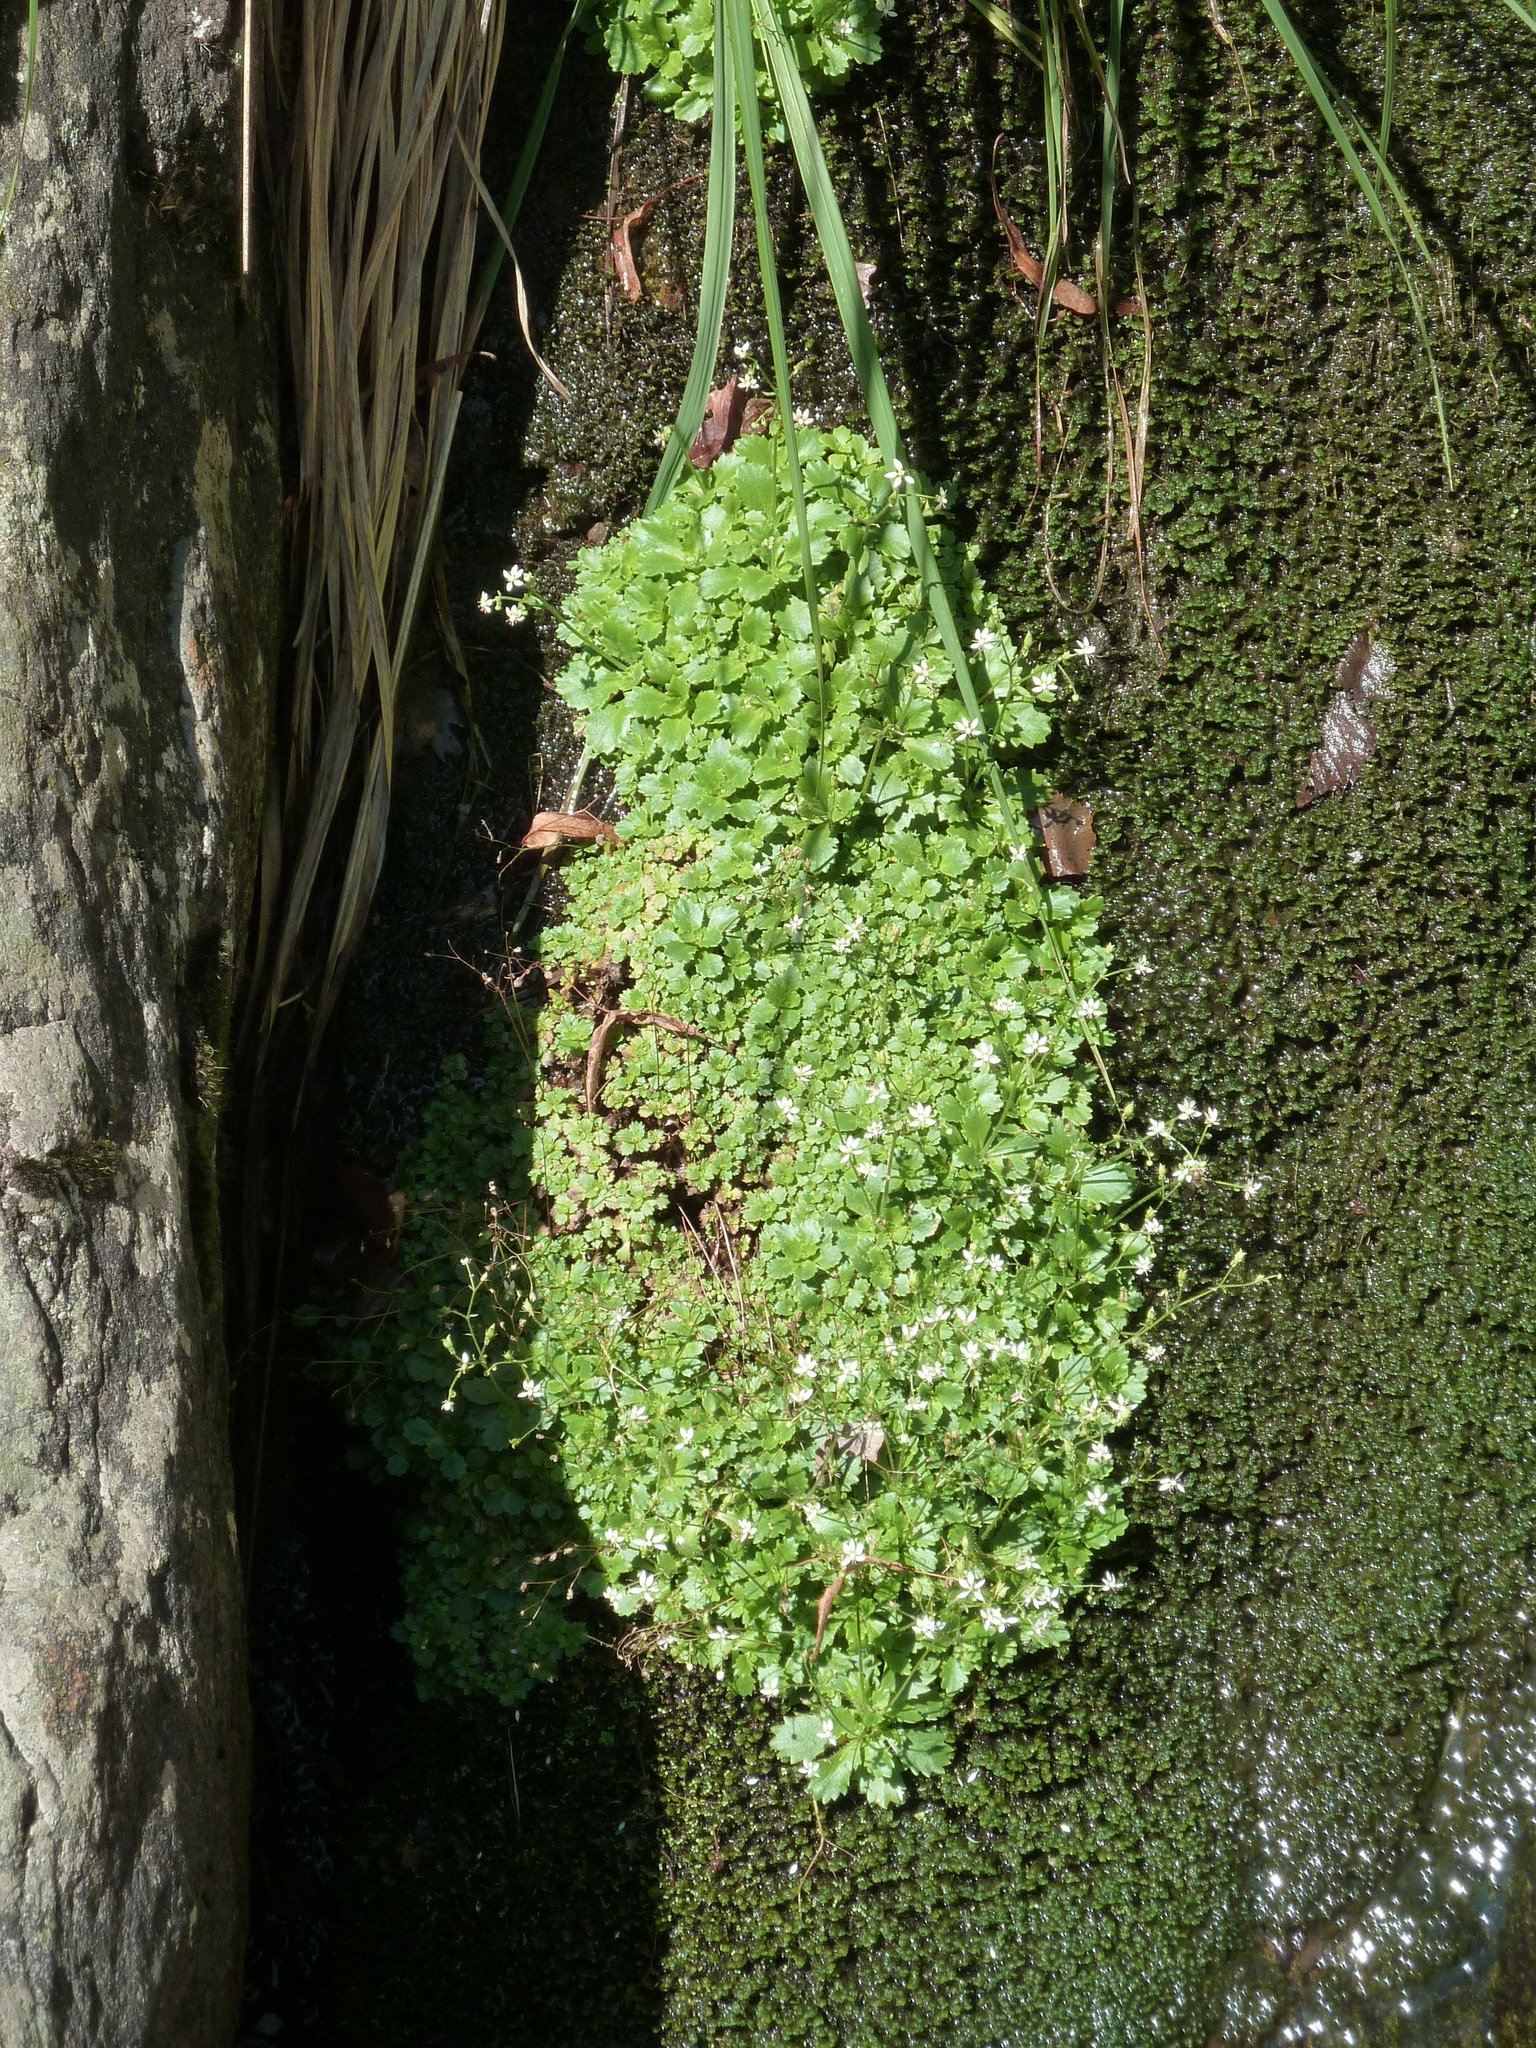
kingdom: Plantae
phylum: Tracheophyta
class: Magnoliopsida
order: Saxifragales
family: Saxifragaceae
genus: Micranthes
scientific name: Micranthes stellaris
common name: Starry saxifrage
